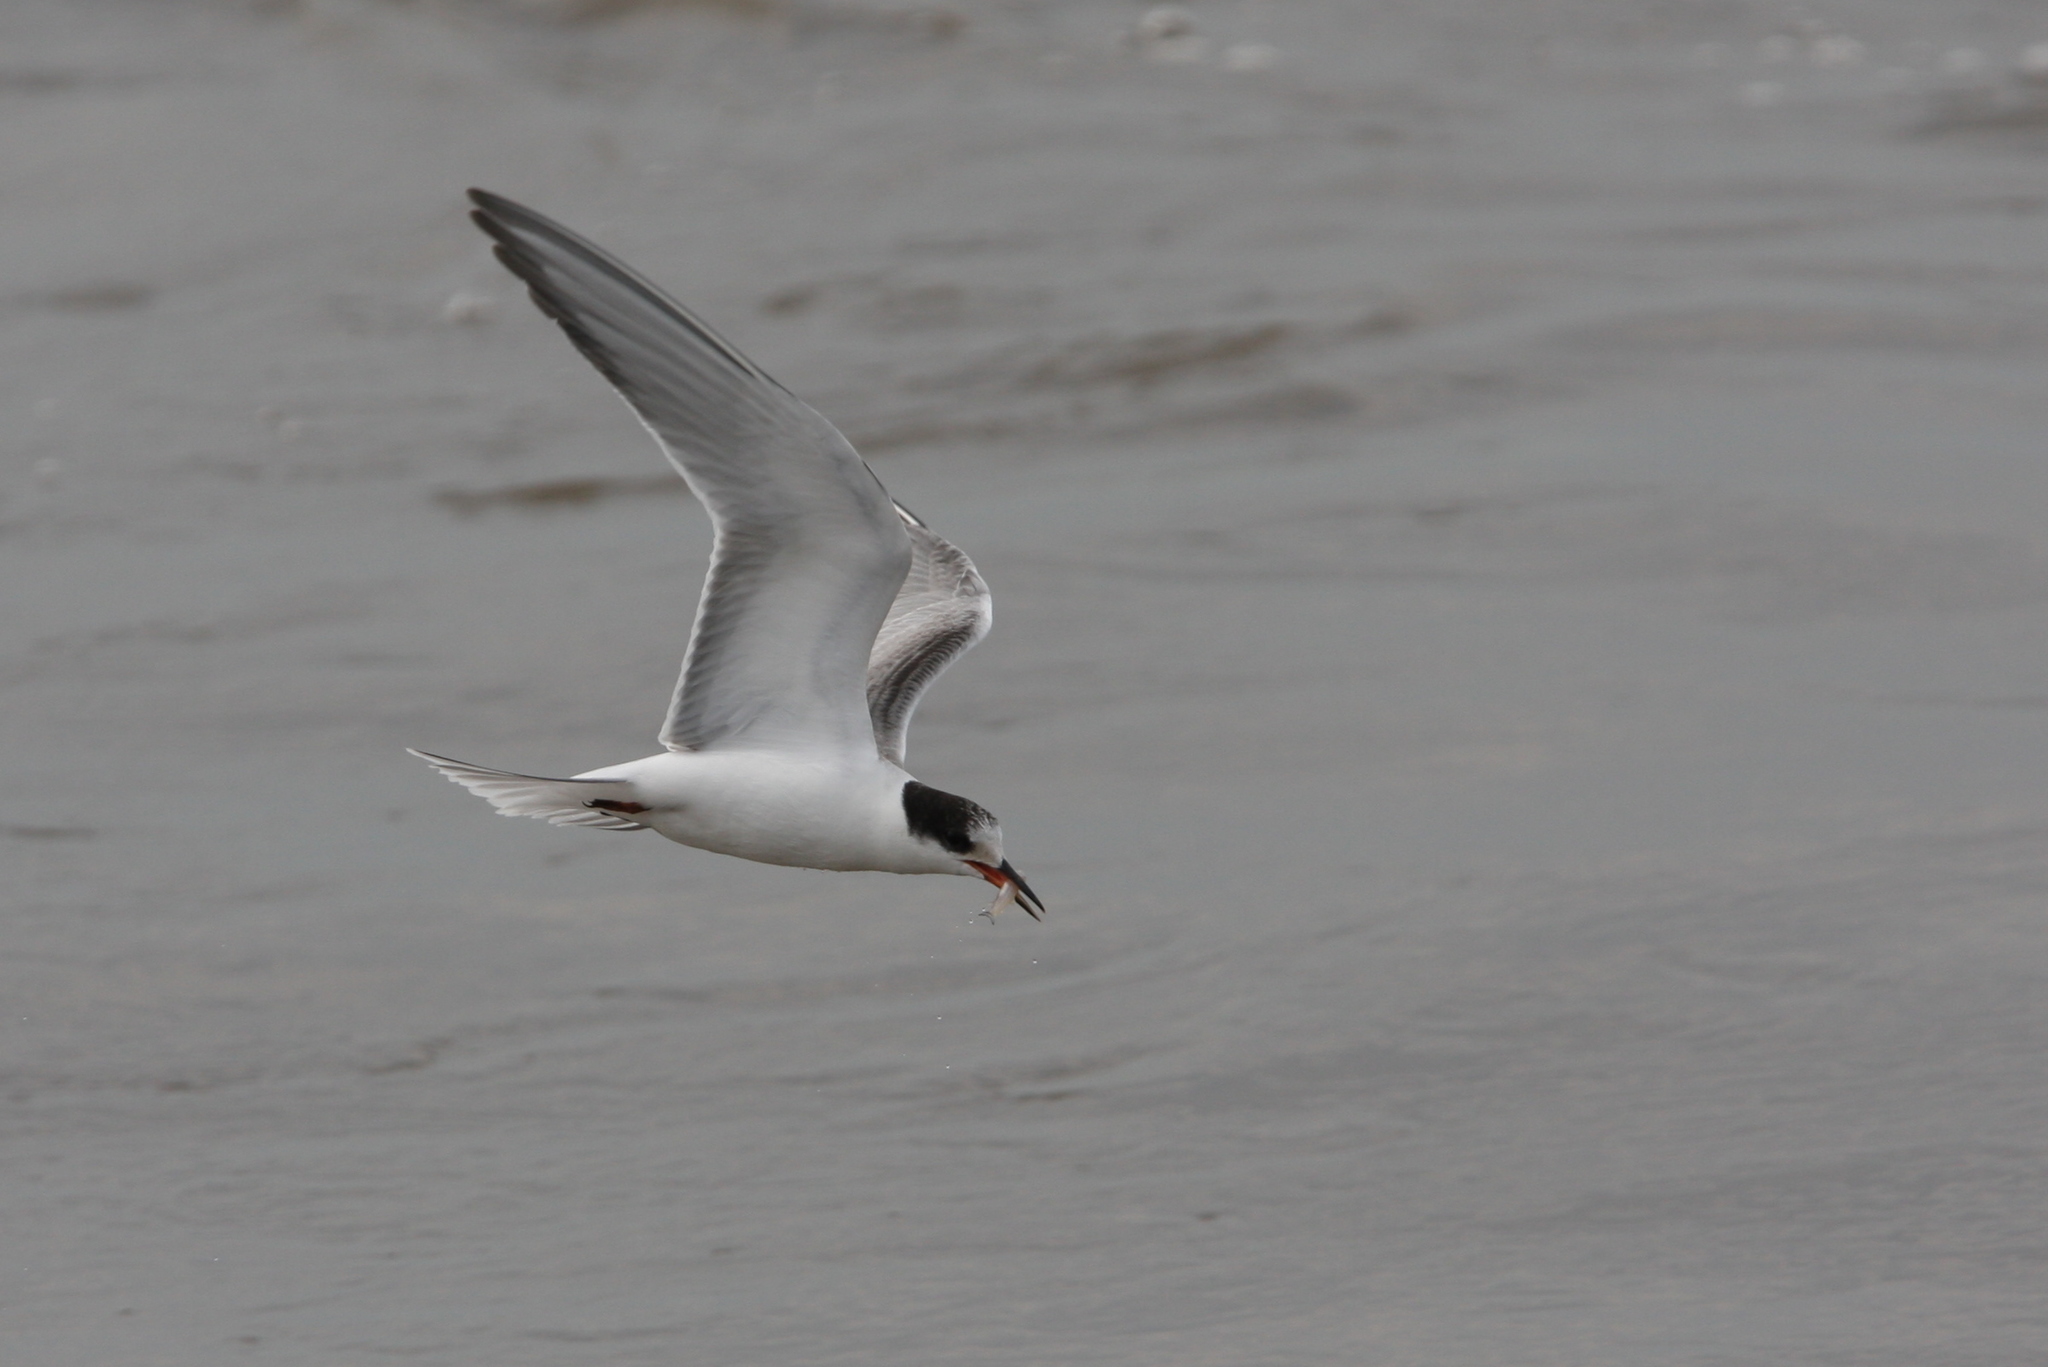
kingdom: Animalia
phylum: Chordata
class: Aves
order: Charadriiformes
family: Laridae
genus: Sterna
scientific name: Sterna hirundo
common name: Common tern
